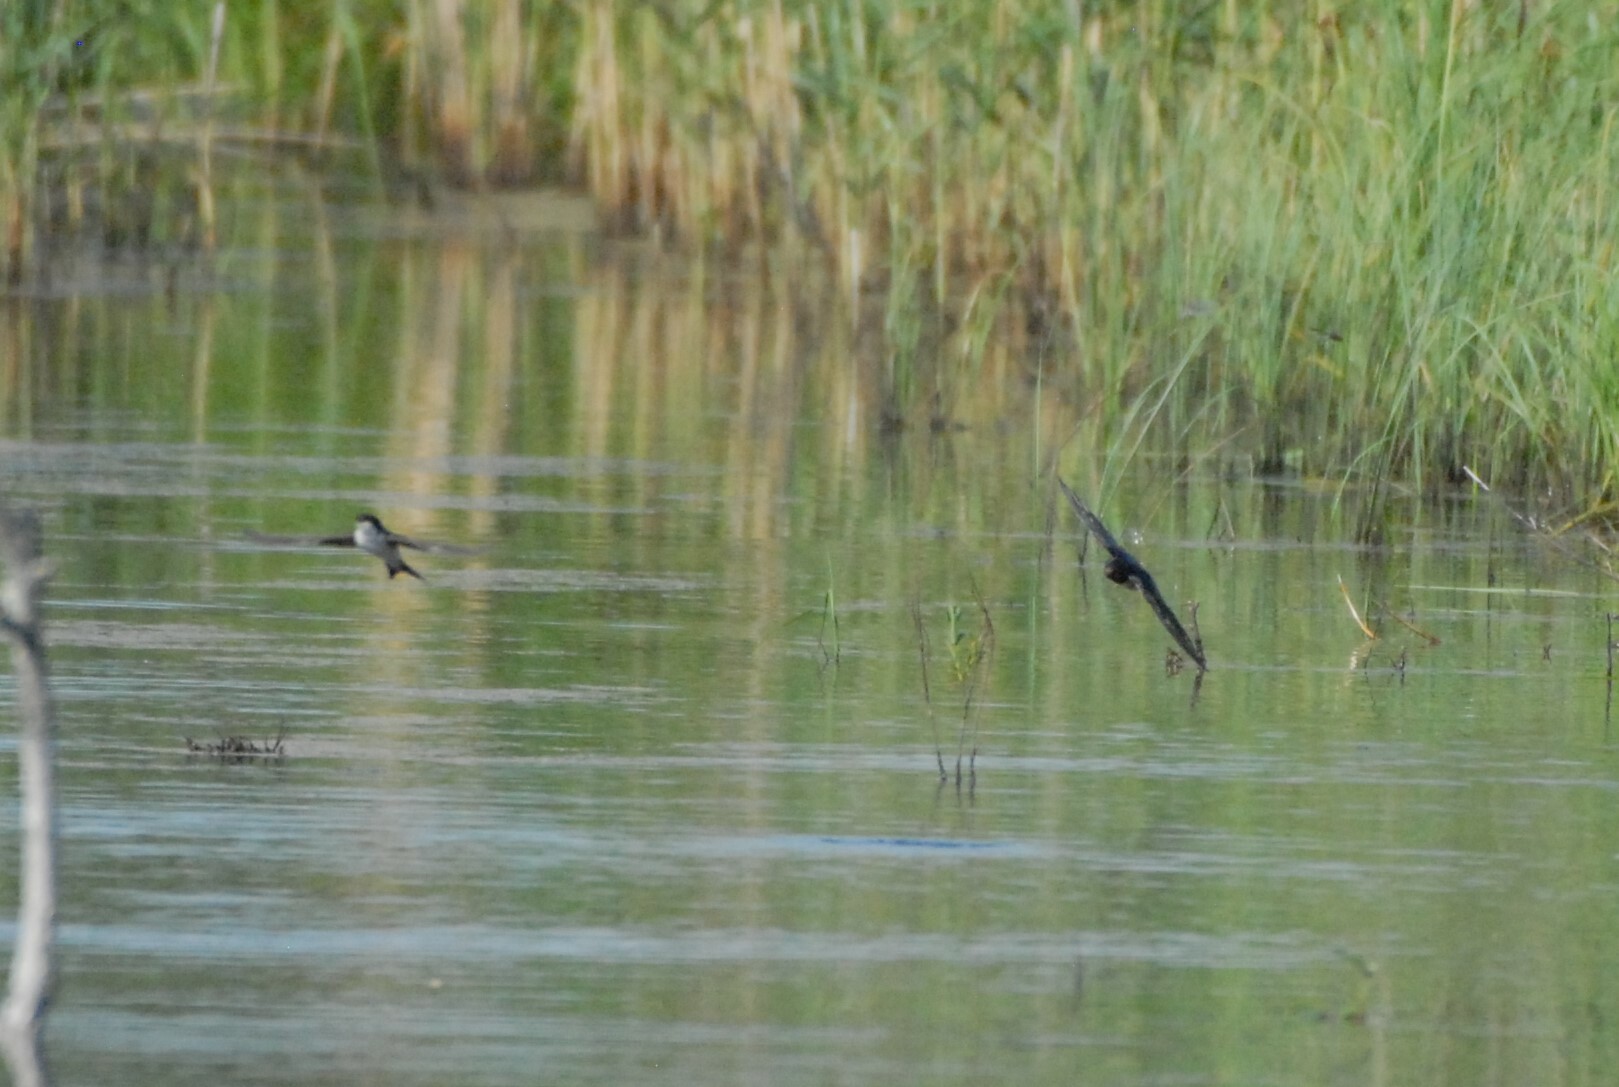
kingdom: Animalia
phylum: Chordata
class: Aves
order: Passeriformes
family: Hirundinidae
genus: Hirundo
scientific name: Hirundo rustica
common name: Barn swallow
